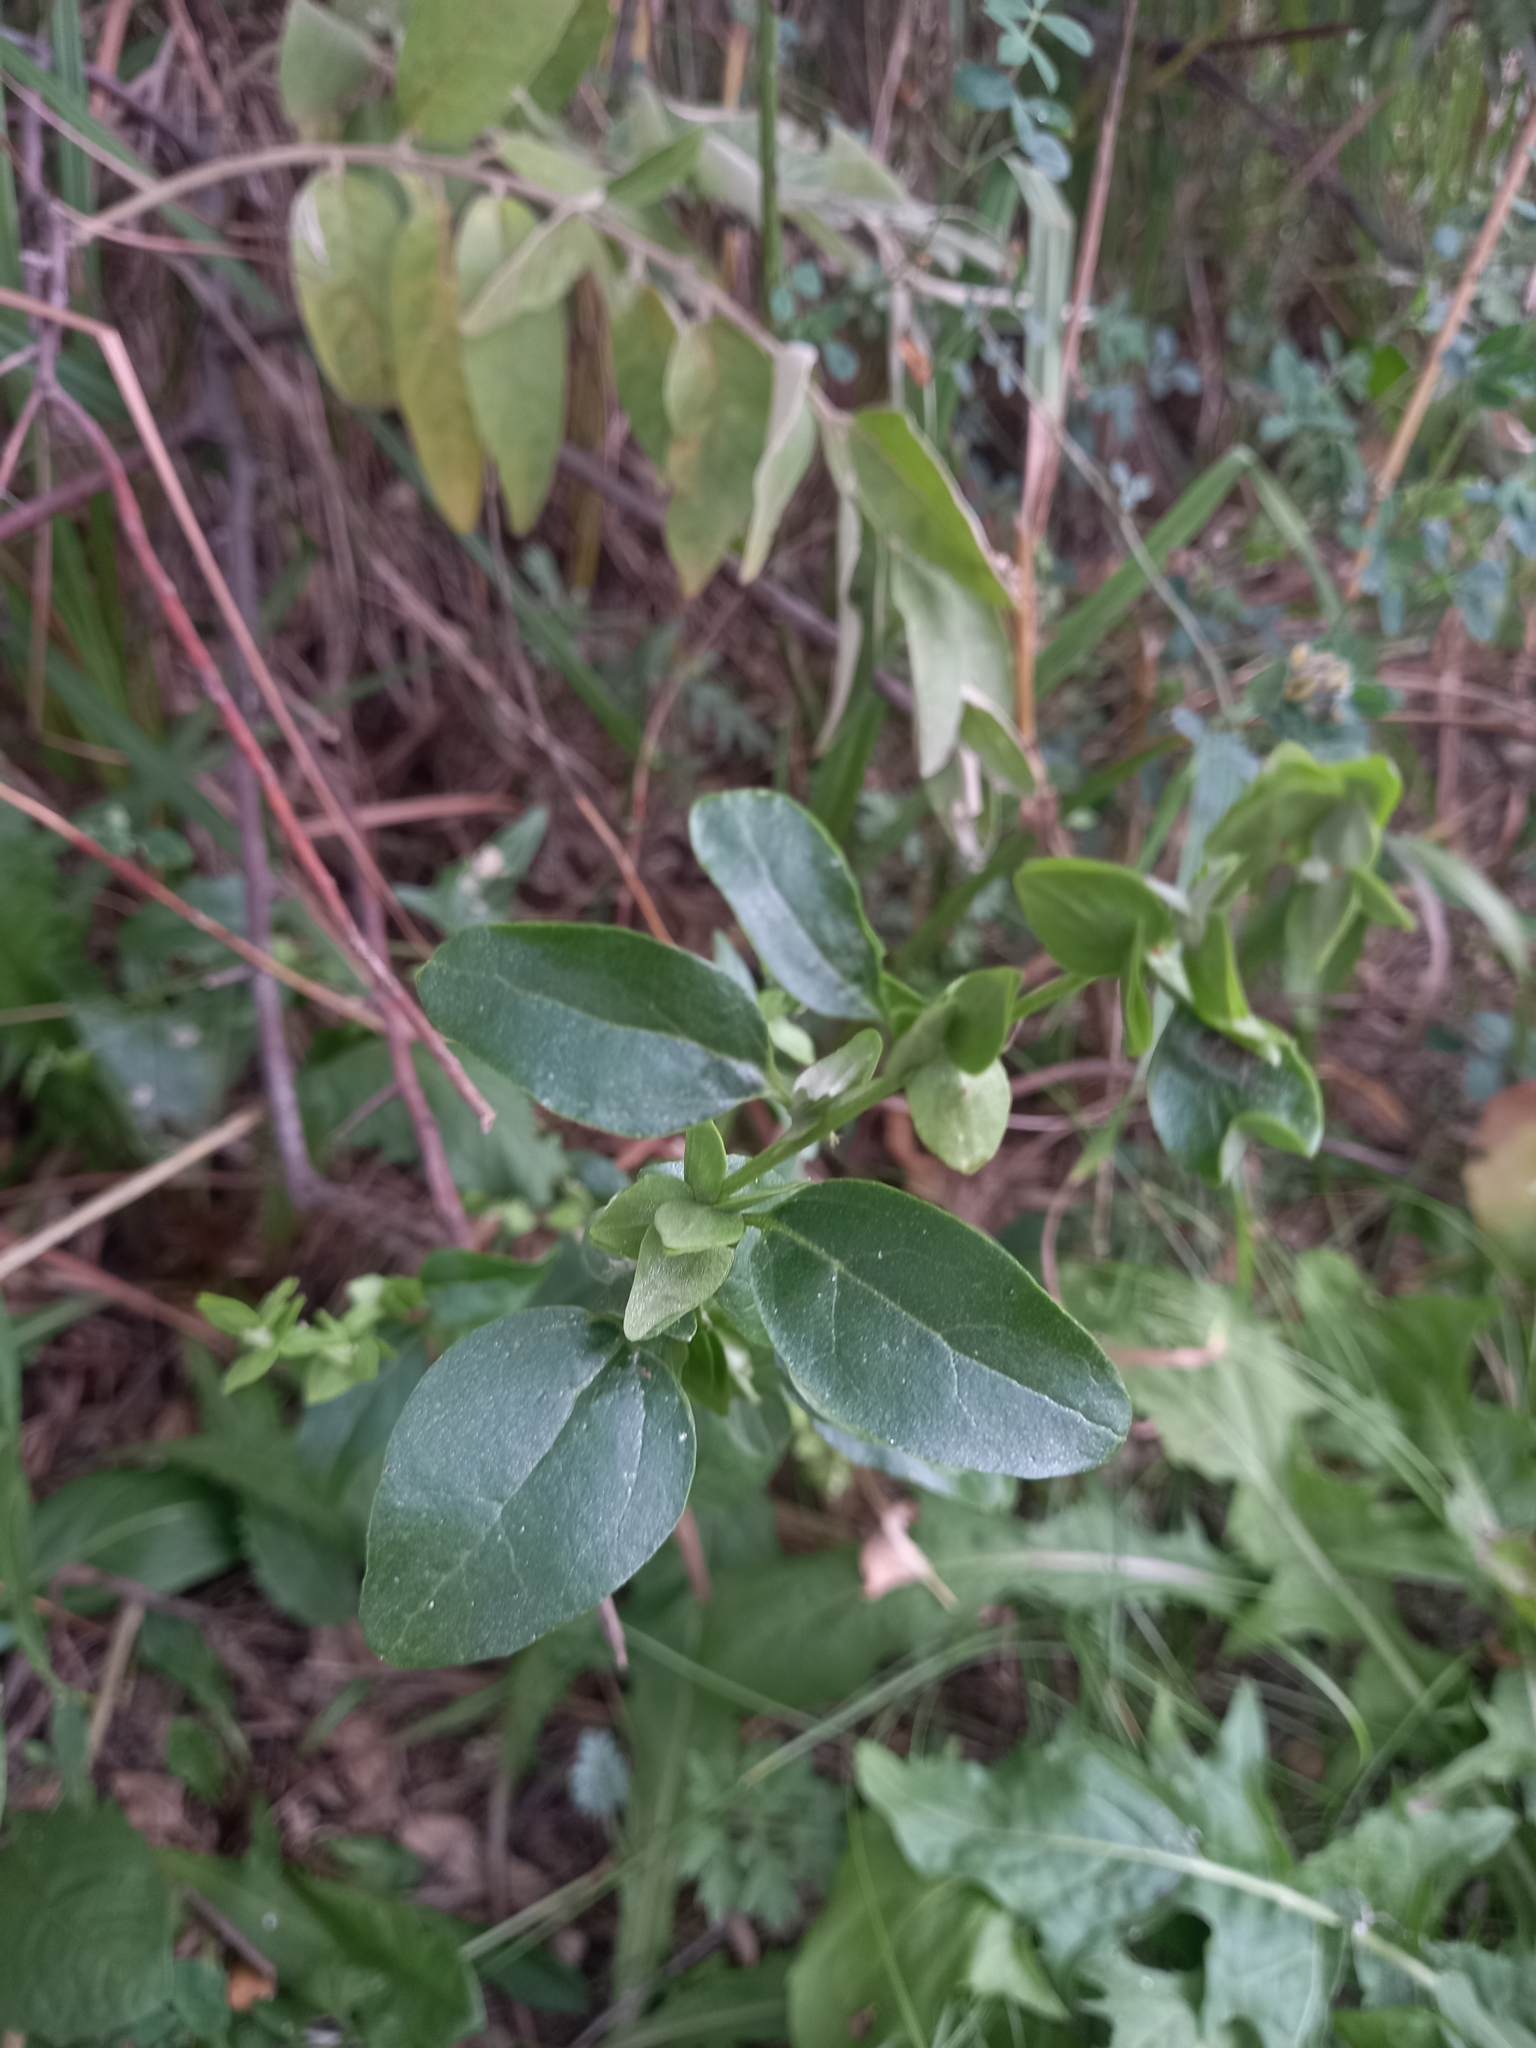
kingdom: Plantae
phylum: Tracheophyta
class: Magnoliopsida
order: Caryophyllales
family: Amaranthaceae
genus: Atriplex
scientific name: Atriplex sagittata
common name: Purple orache
